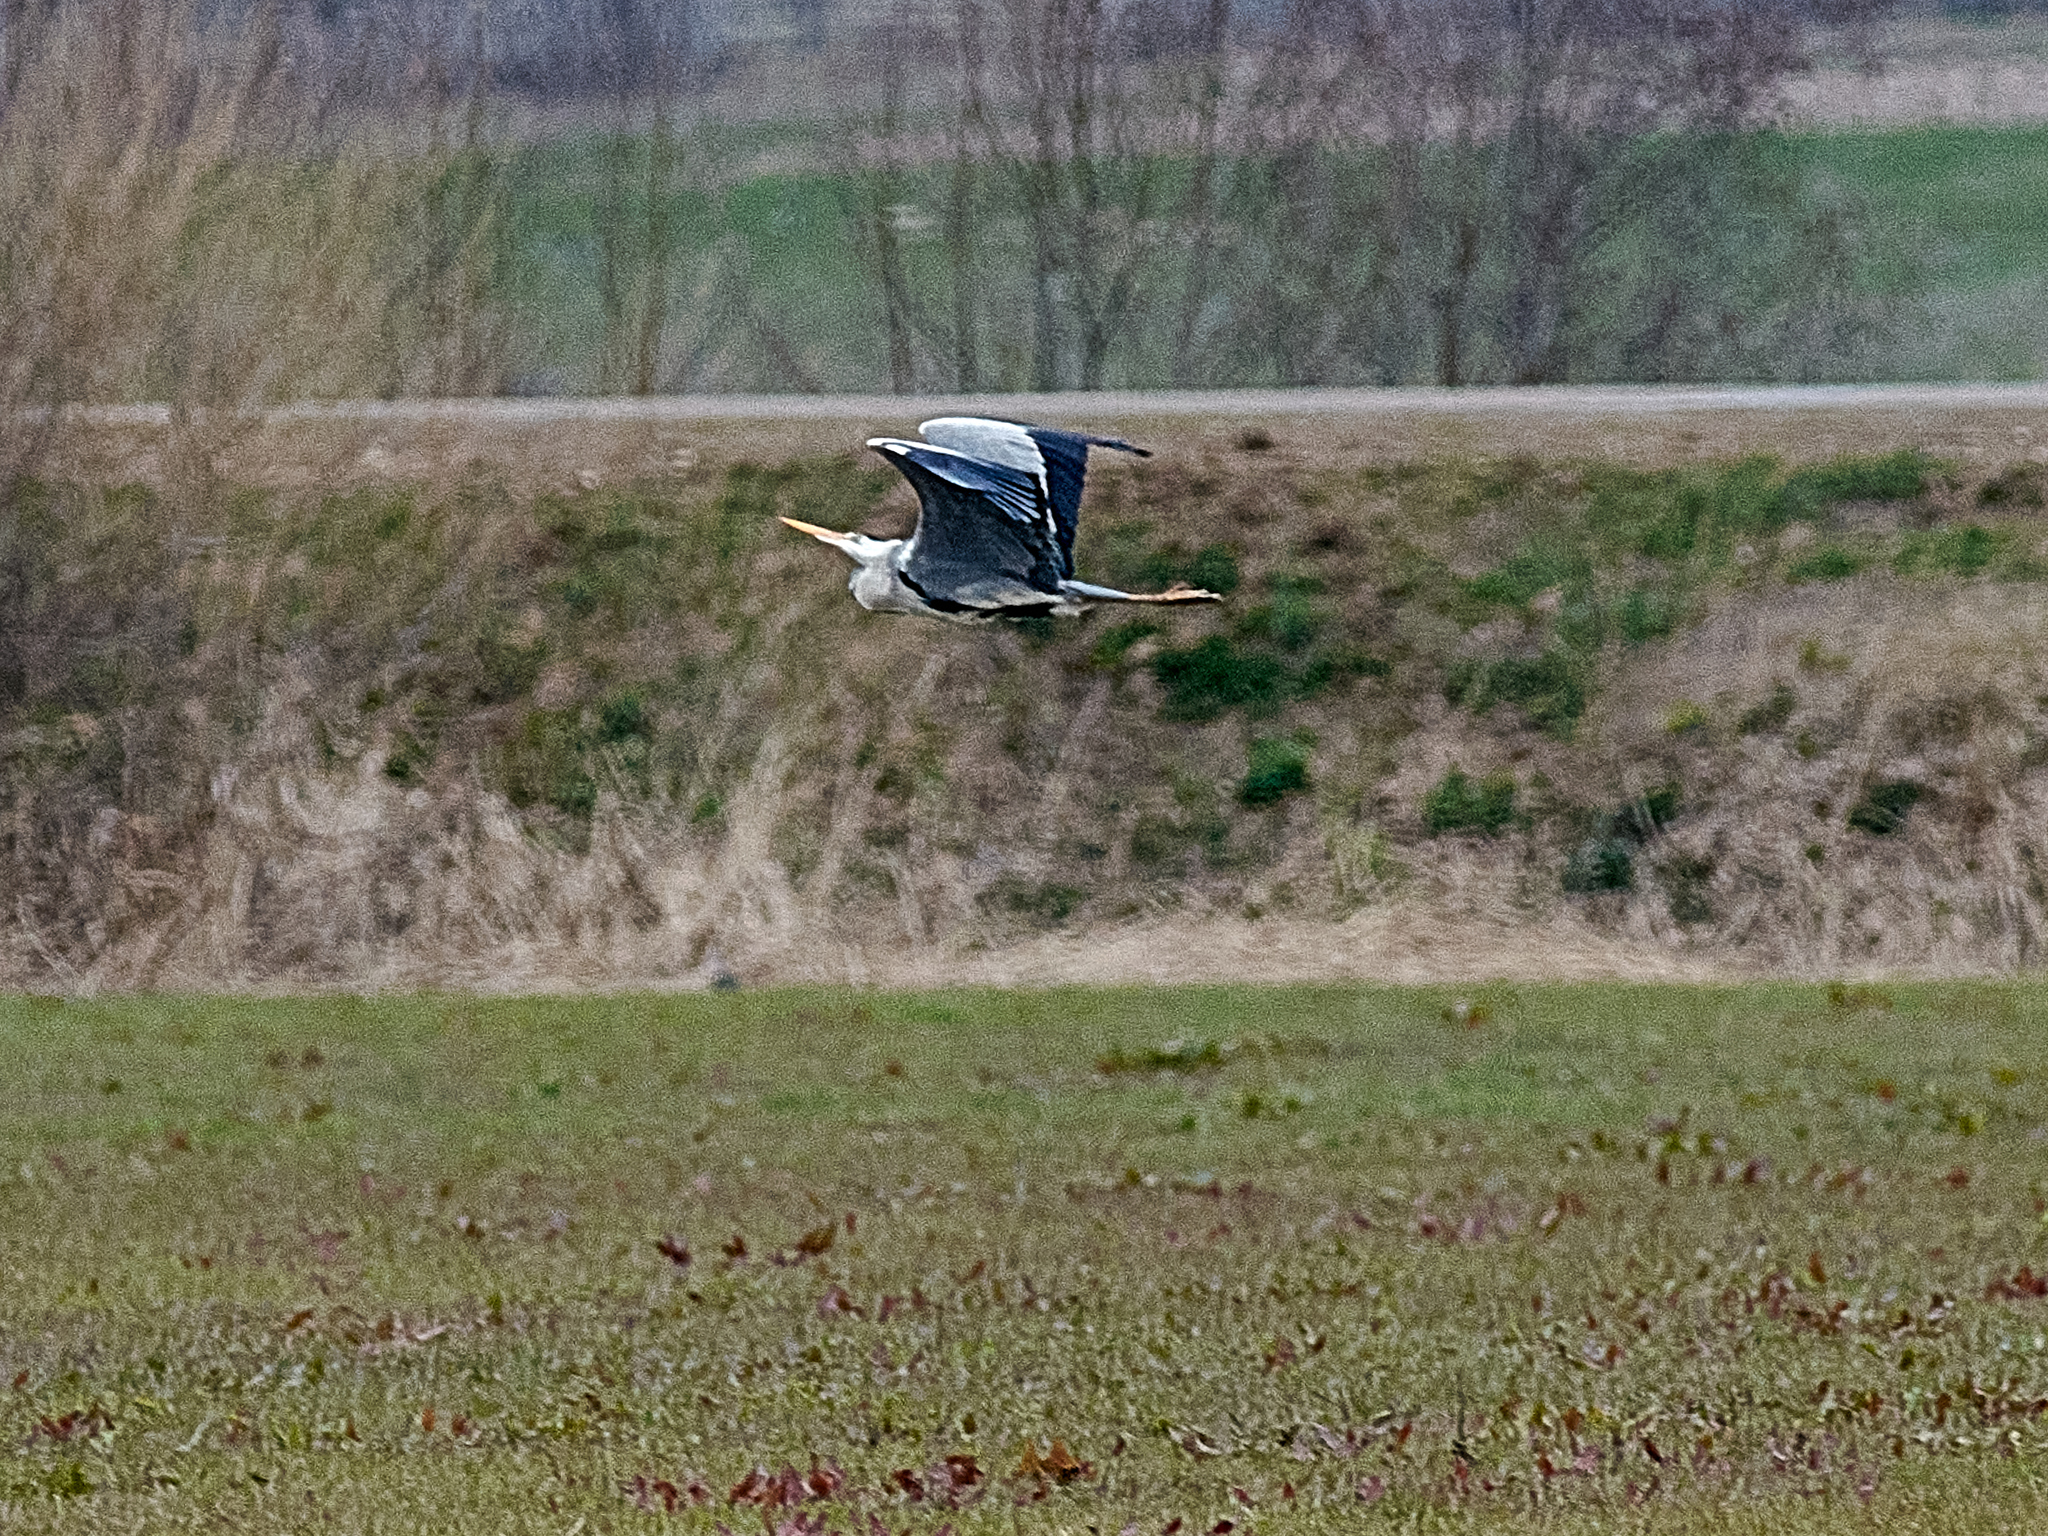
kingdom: Animalia
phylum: Chordata
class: Aves
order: Pelecaniformes
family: Ardeidae
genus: Ardea
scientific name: Ardea cinerea
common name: Grey heron
